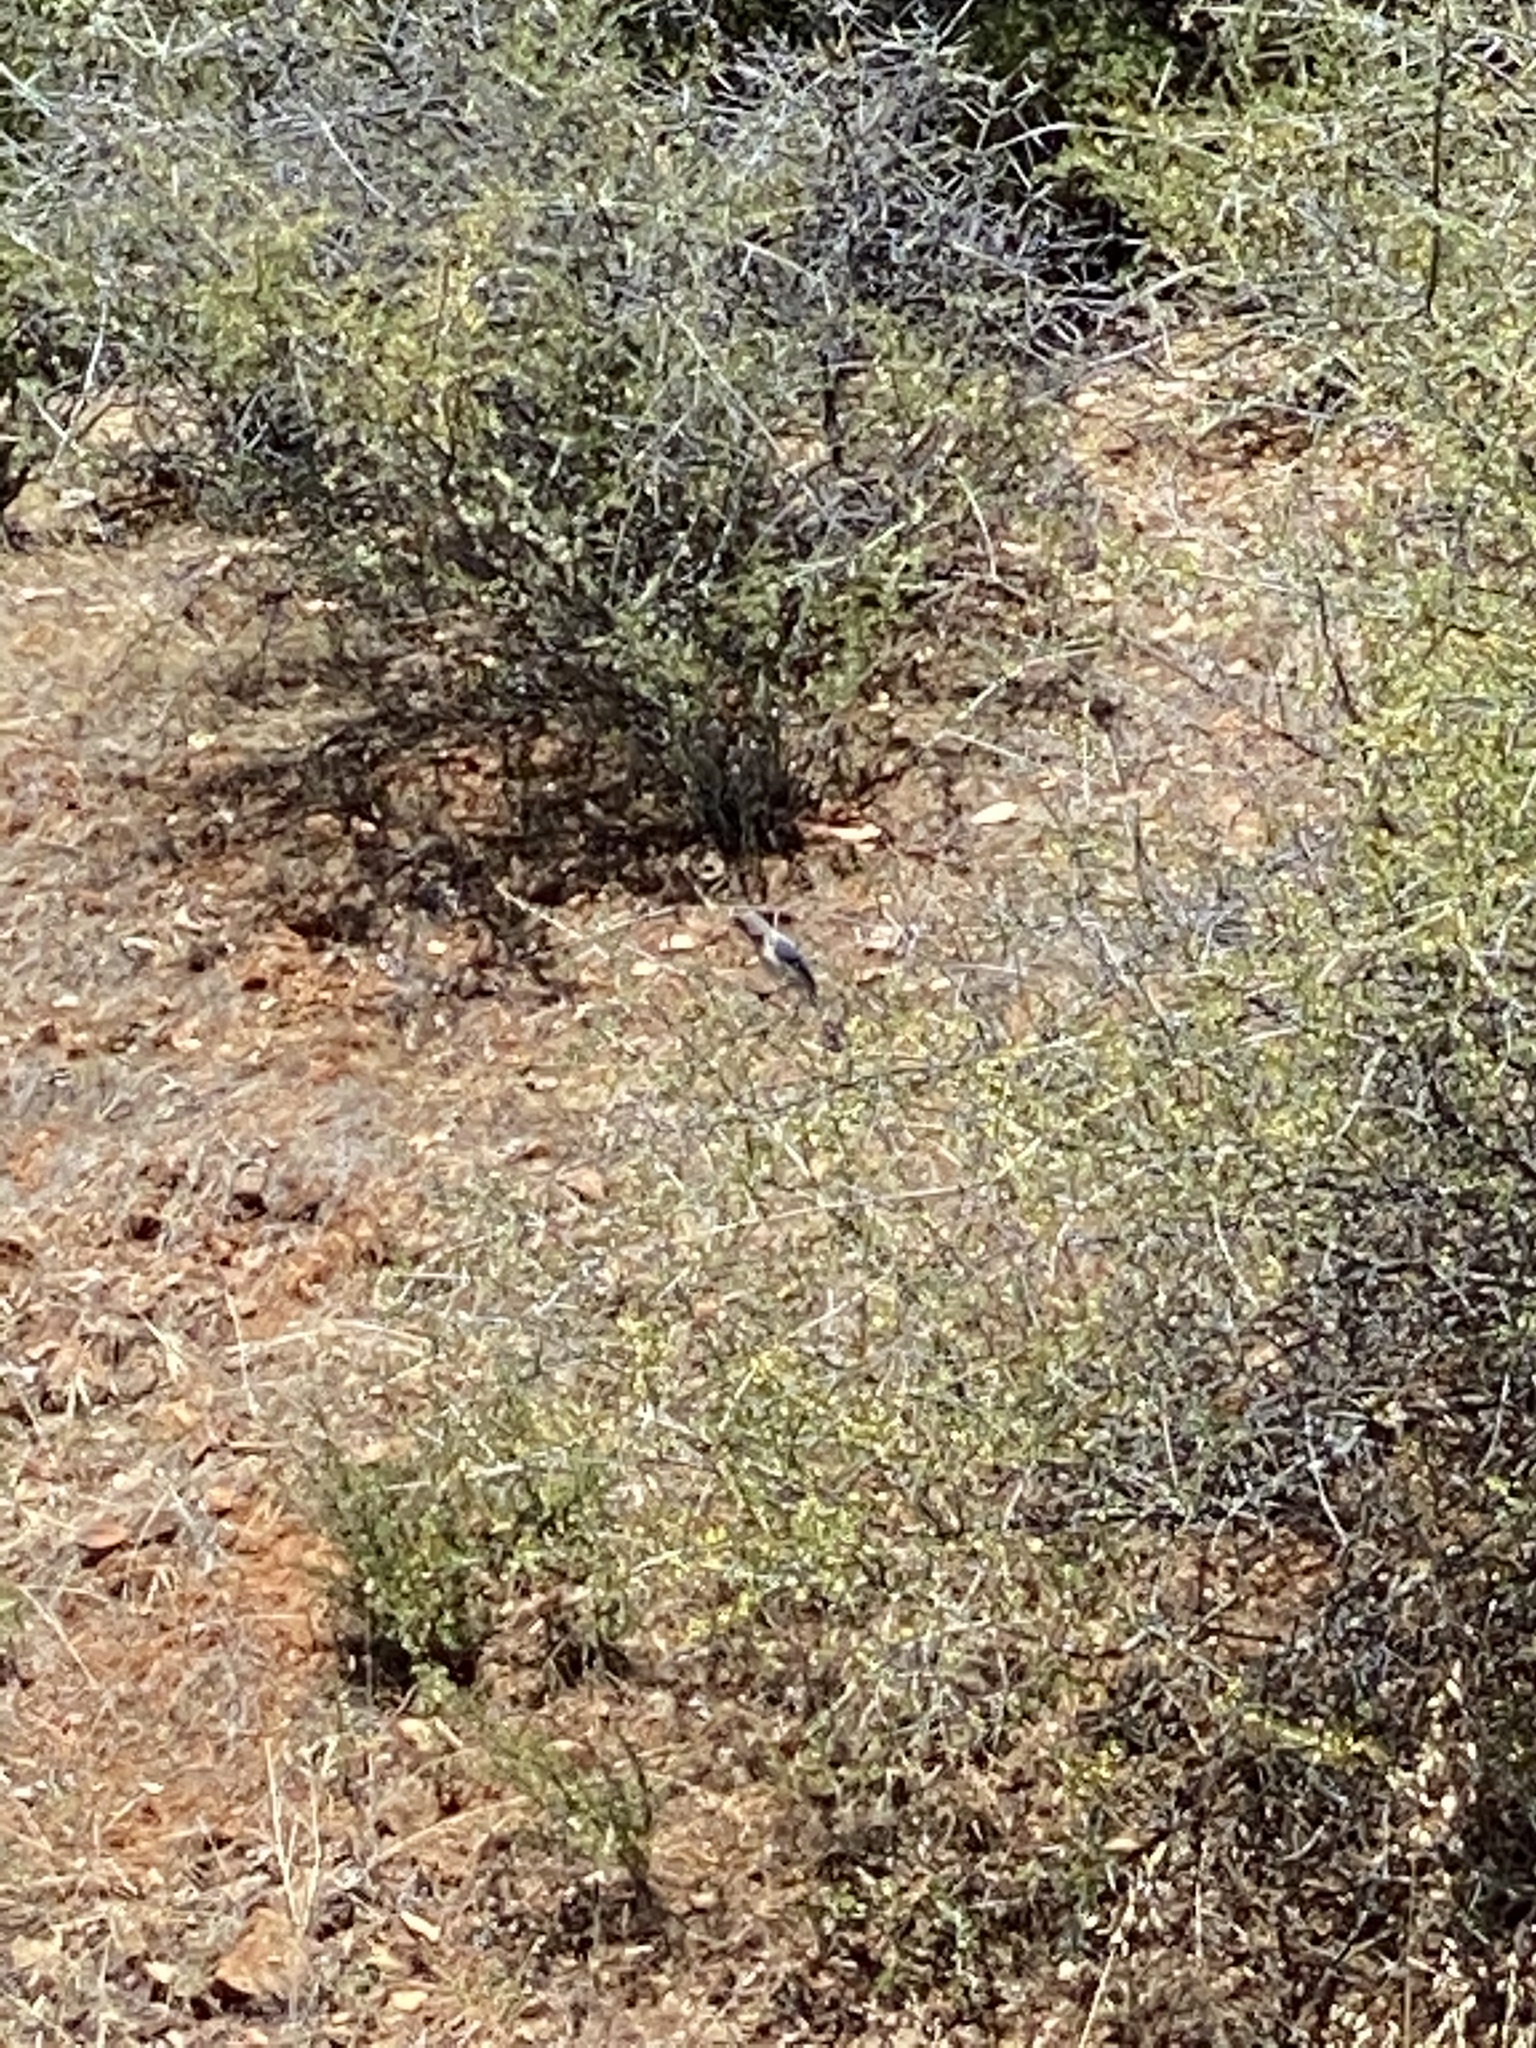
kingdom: Animalia
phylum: Chordata
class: Aves
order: Passeriformes
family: Corvidae
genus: Aphelocoma
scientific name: Aphelocoma californica
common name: California scrub-jay
